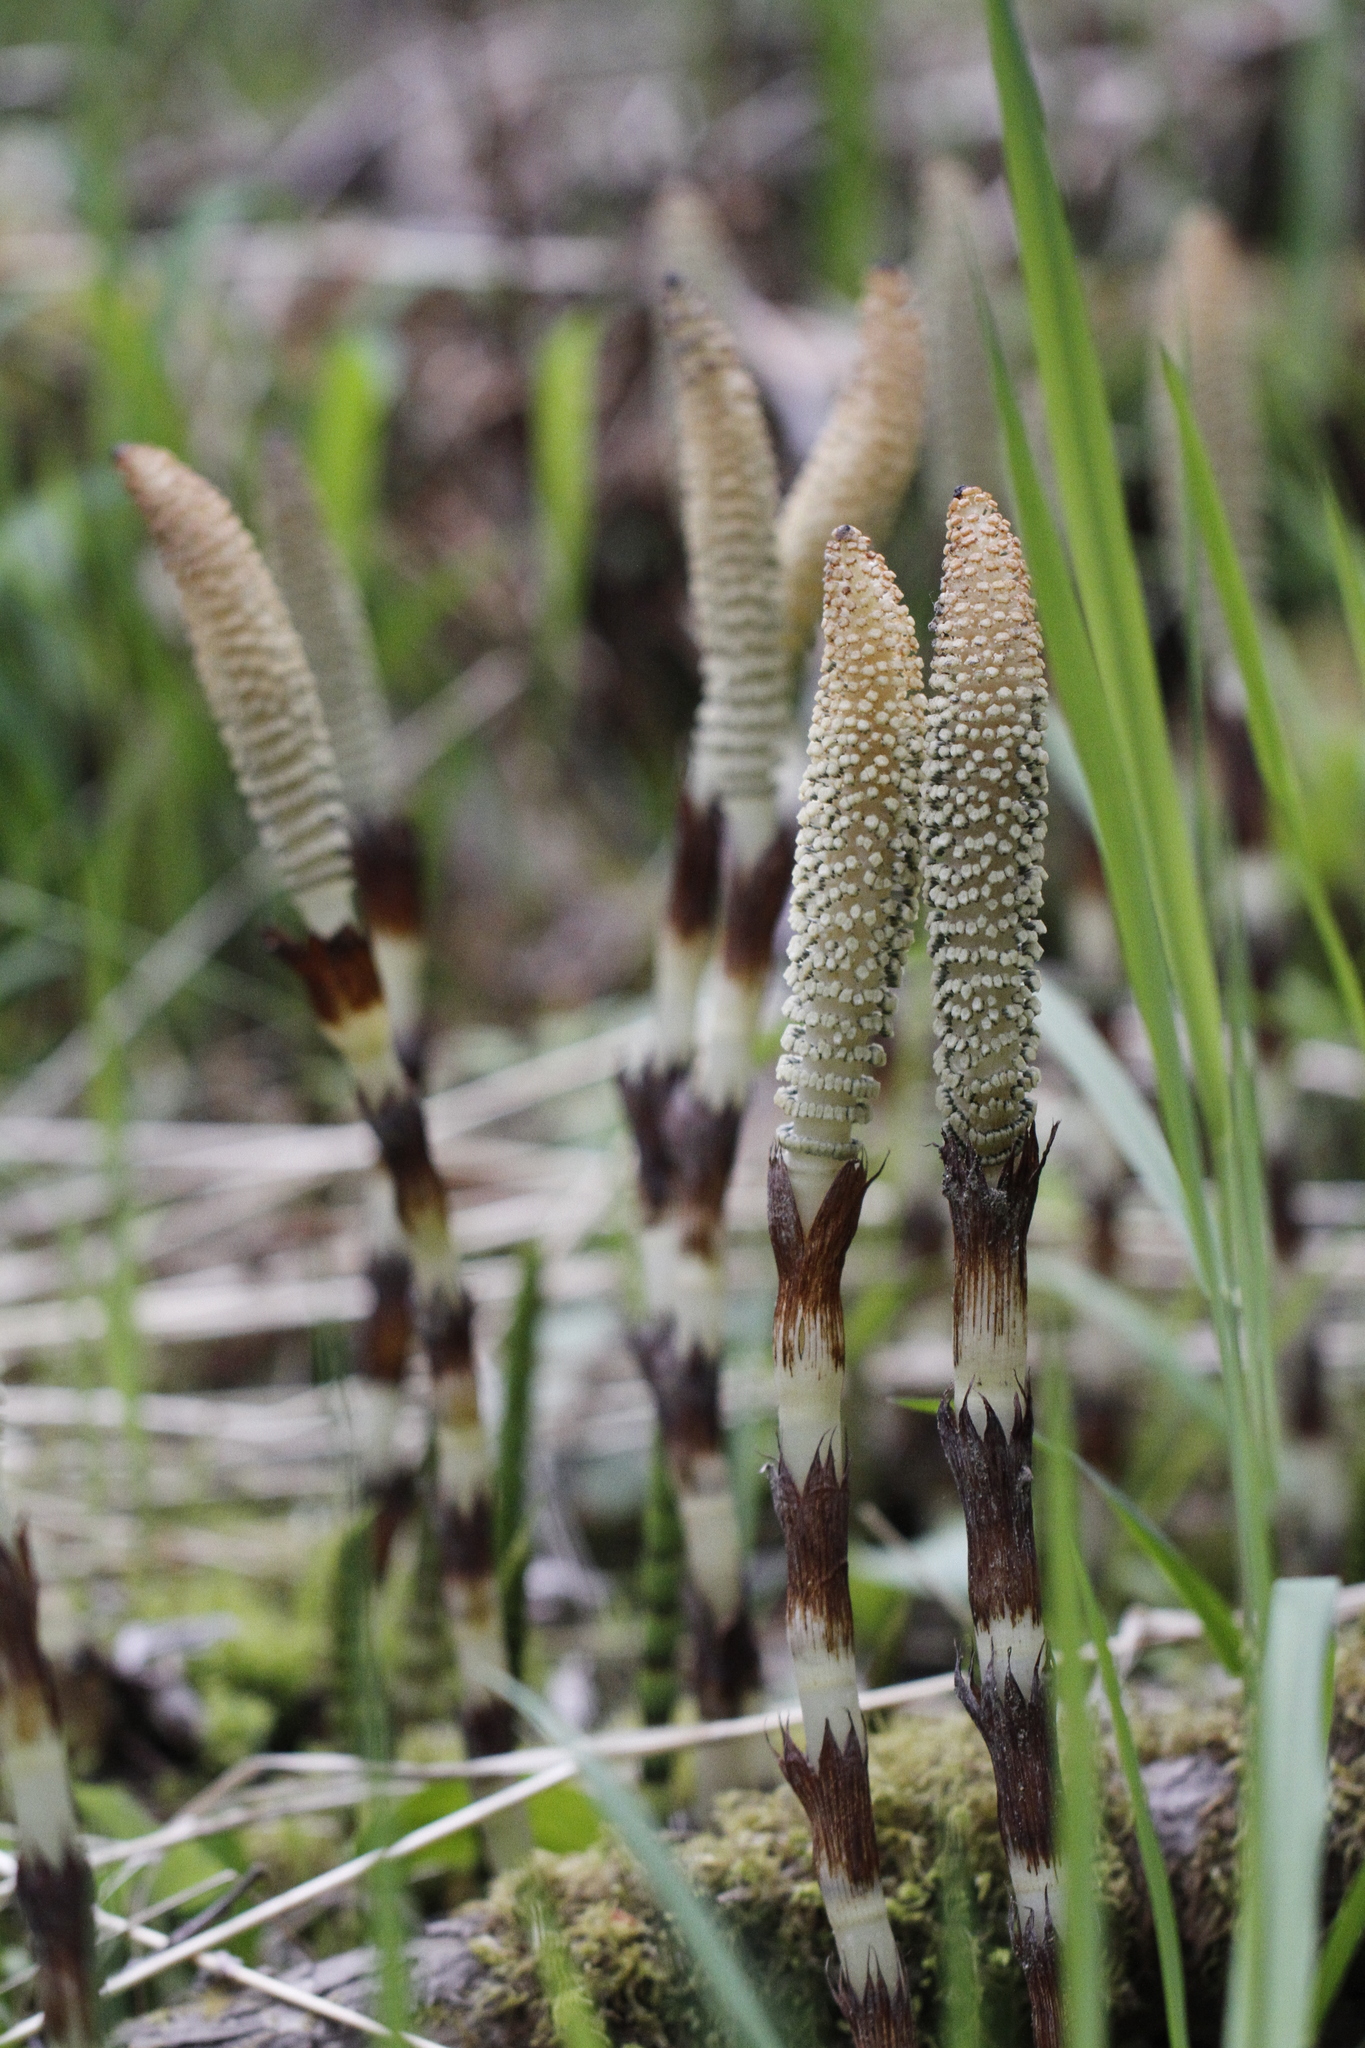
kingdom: Plantae
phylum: Tracheophyta
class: Polypodiopsida
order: Equisetales
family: Equisetaceae
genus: Equisetum
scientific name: Equisetum telmateia
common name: Great horsetail
